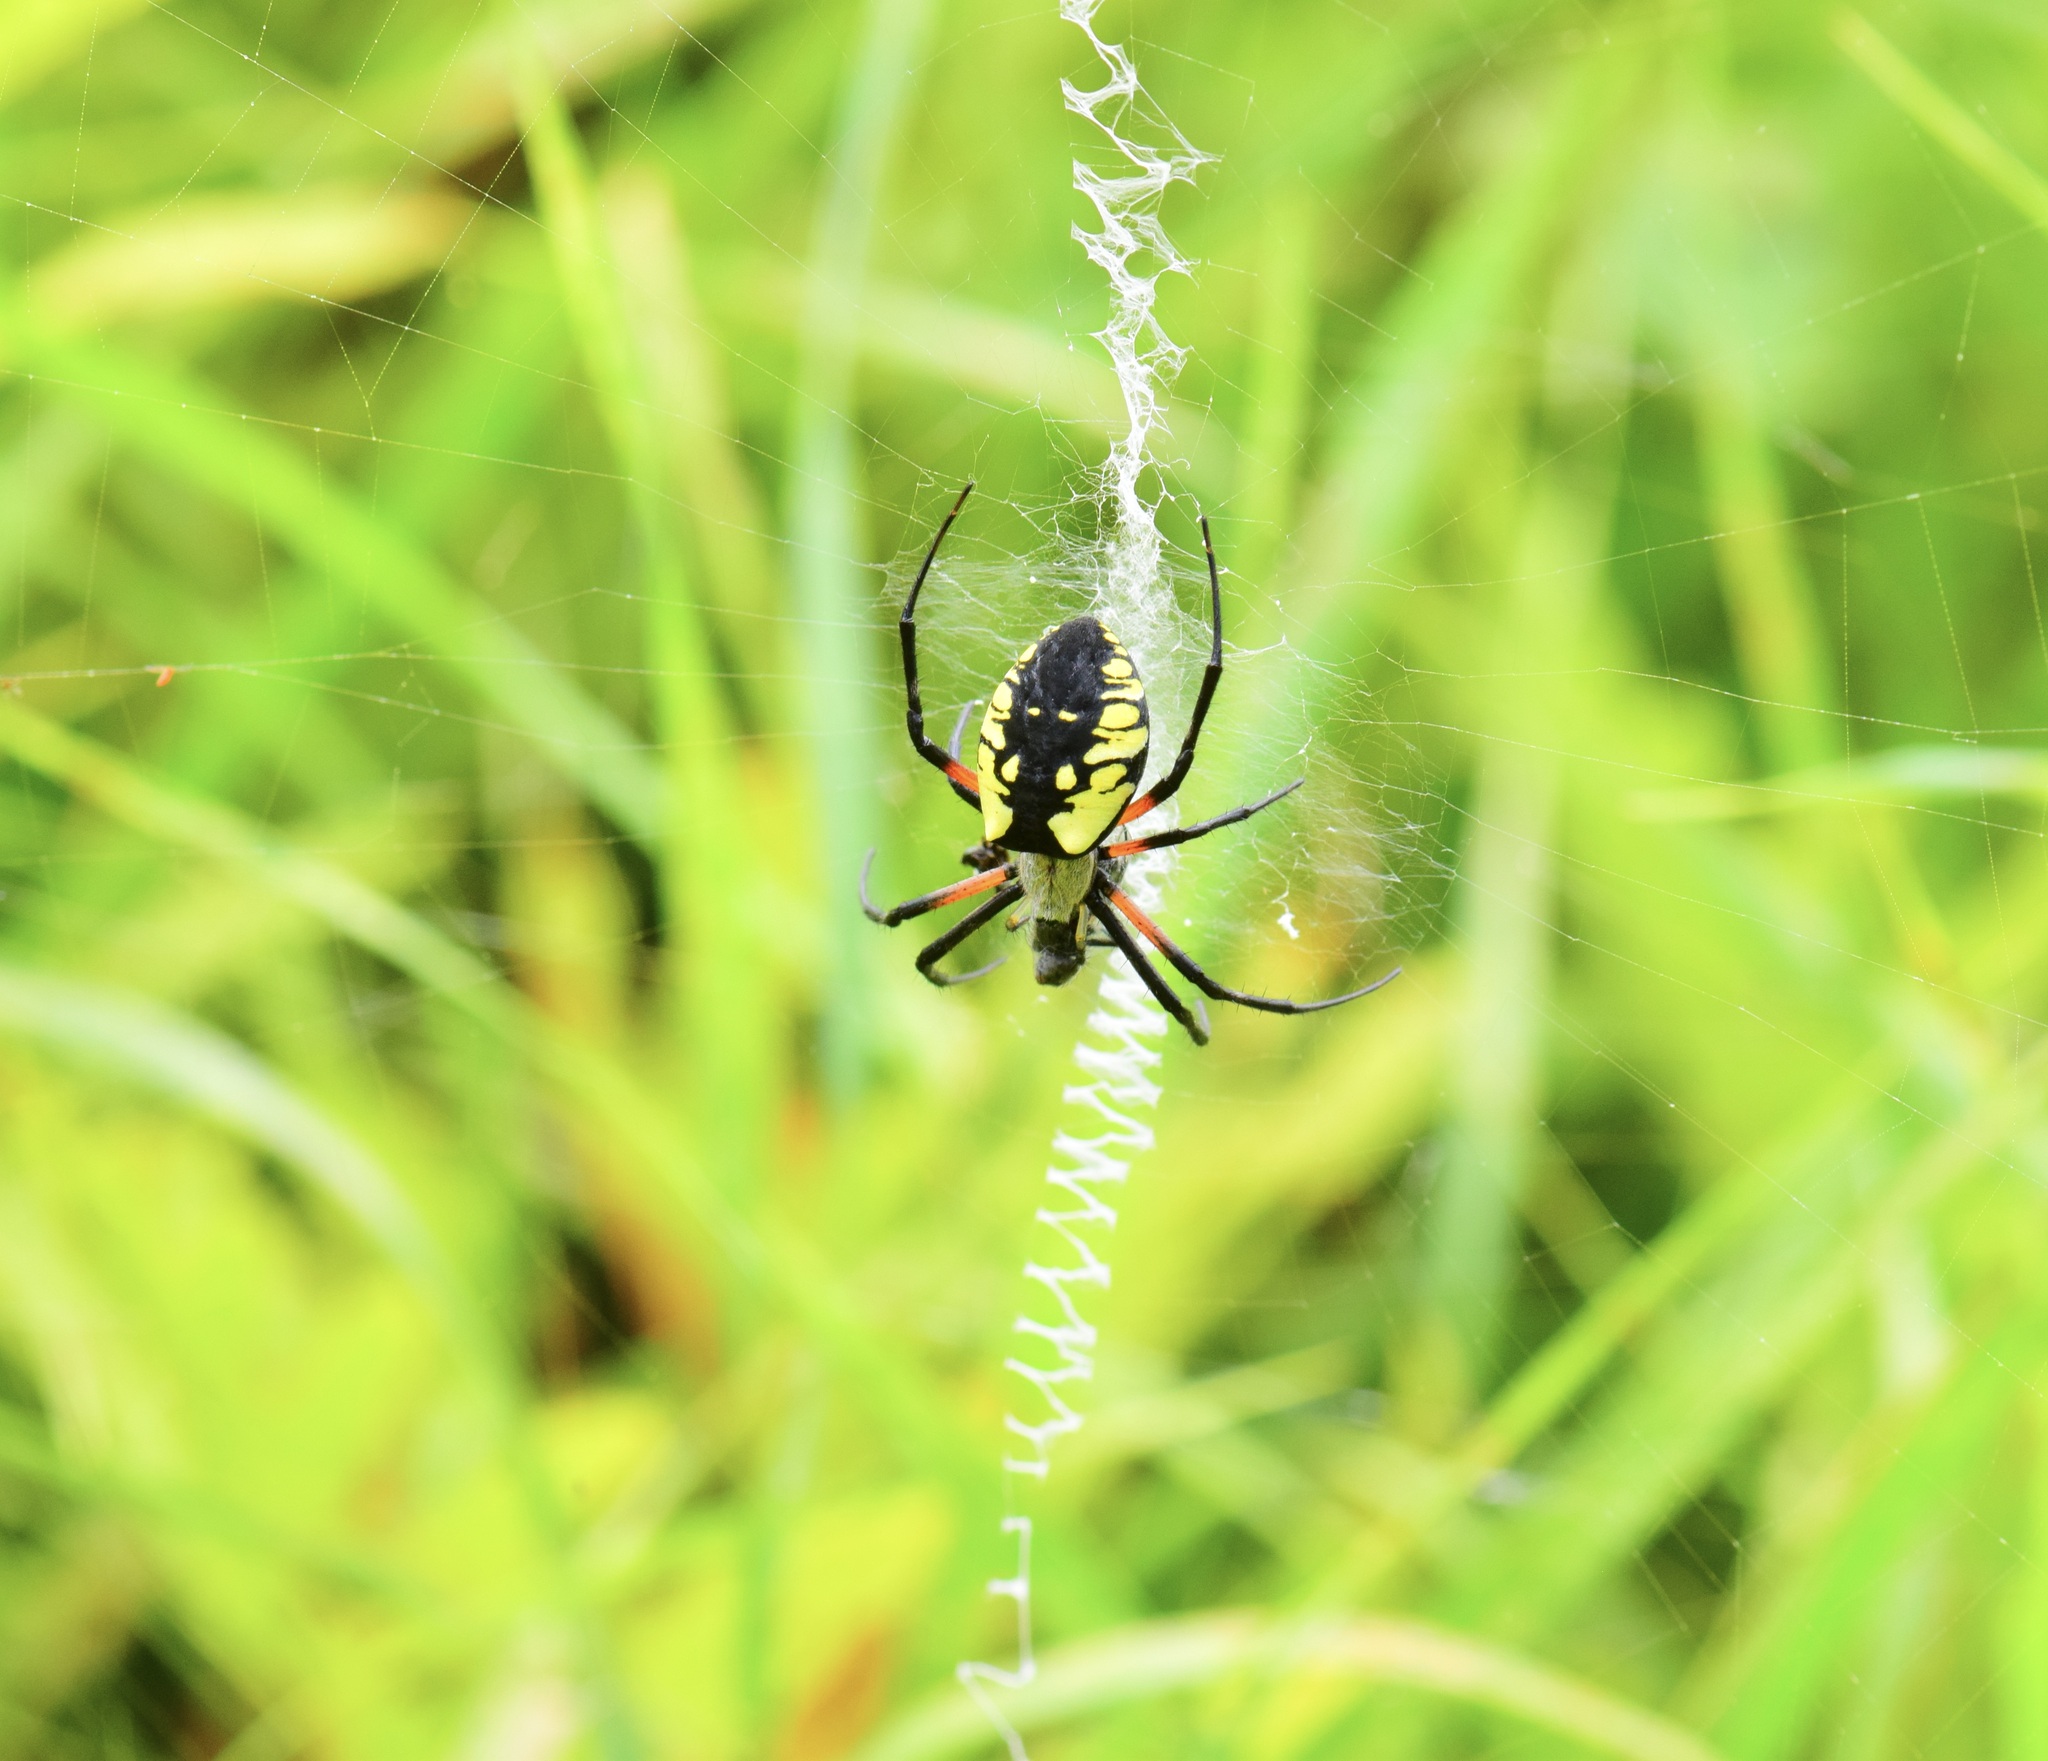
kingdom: Animalia
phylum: Arthropoda
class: Arachnida
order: Araneae
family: Araneidae
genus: Argiope
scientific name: Argiope aurantia
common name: Orb weavers
